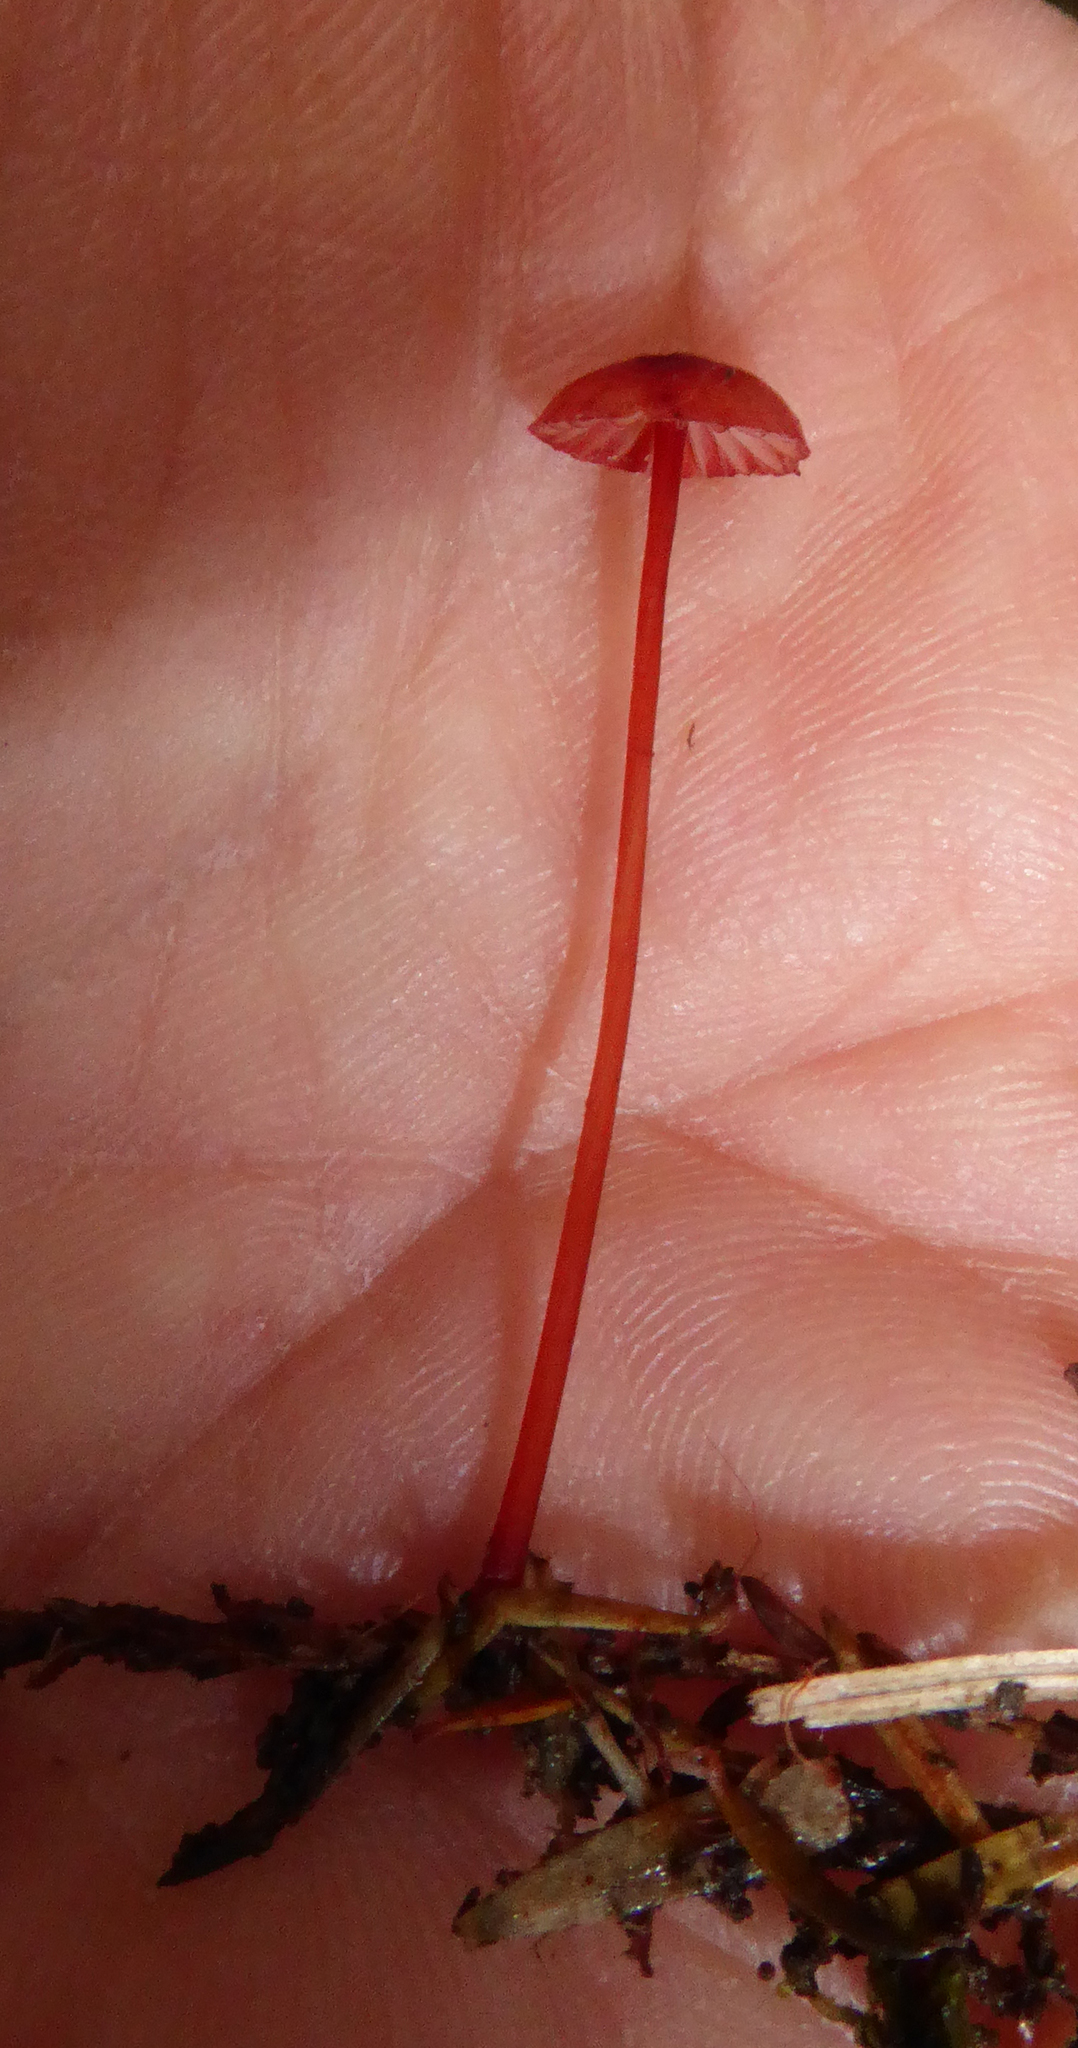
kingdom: Fungi
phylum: Basidiomycota
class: Agaricomycetes
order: Agaricales
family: Mycenaceae
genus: Mycena
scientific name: Mycena ura
